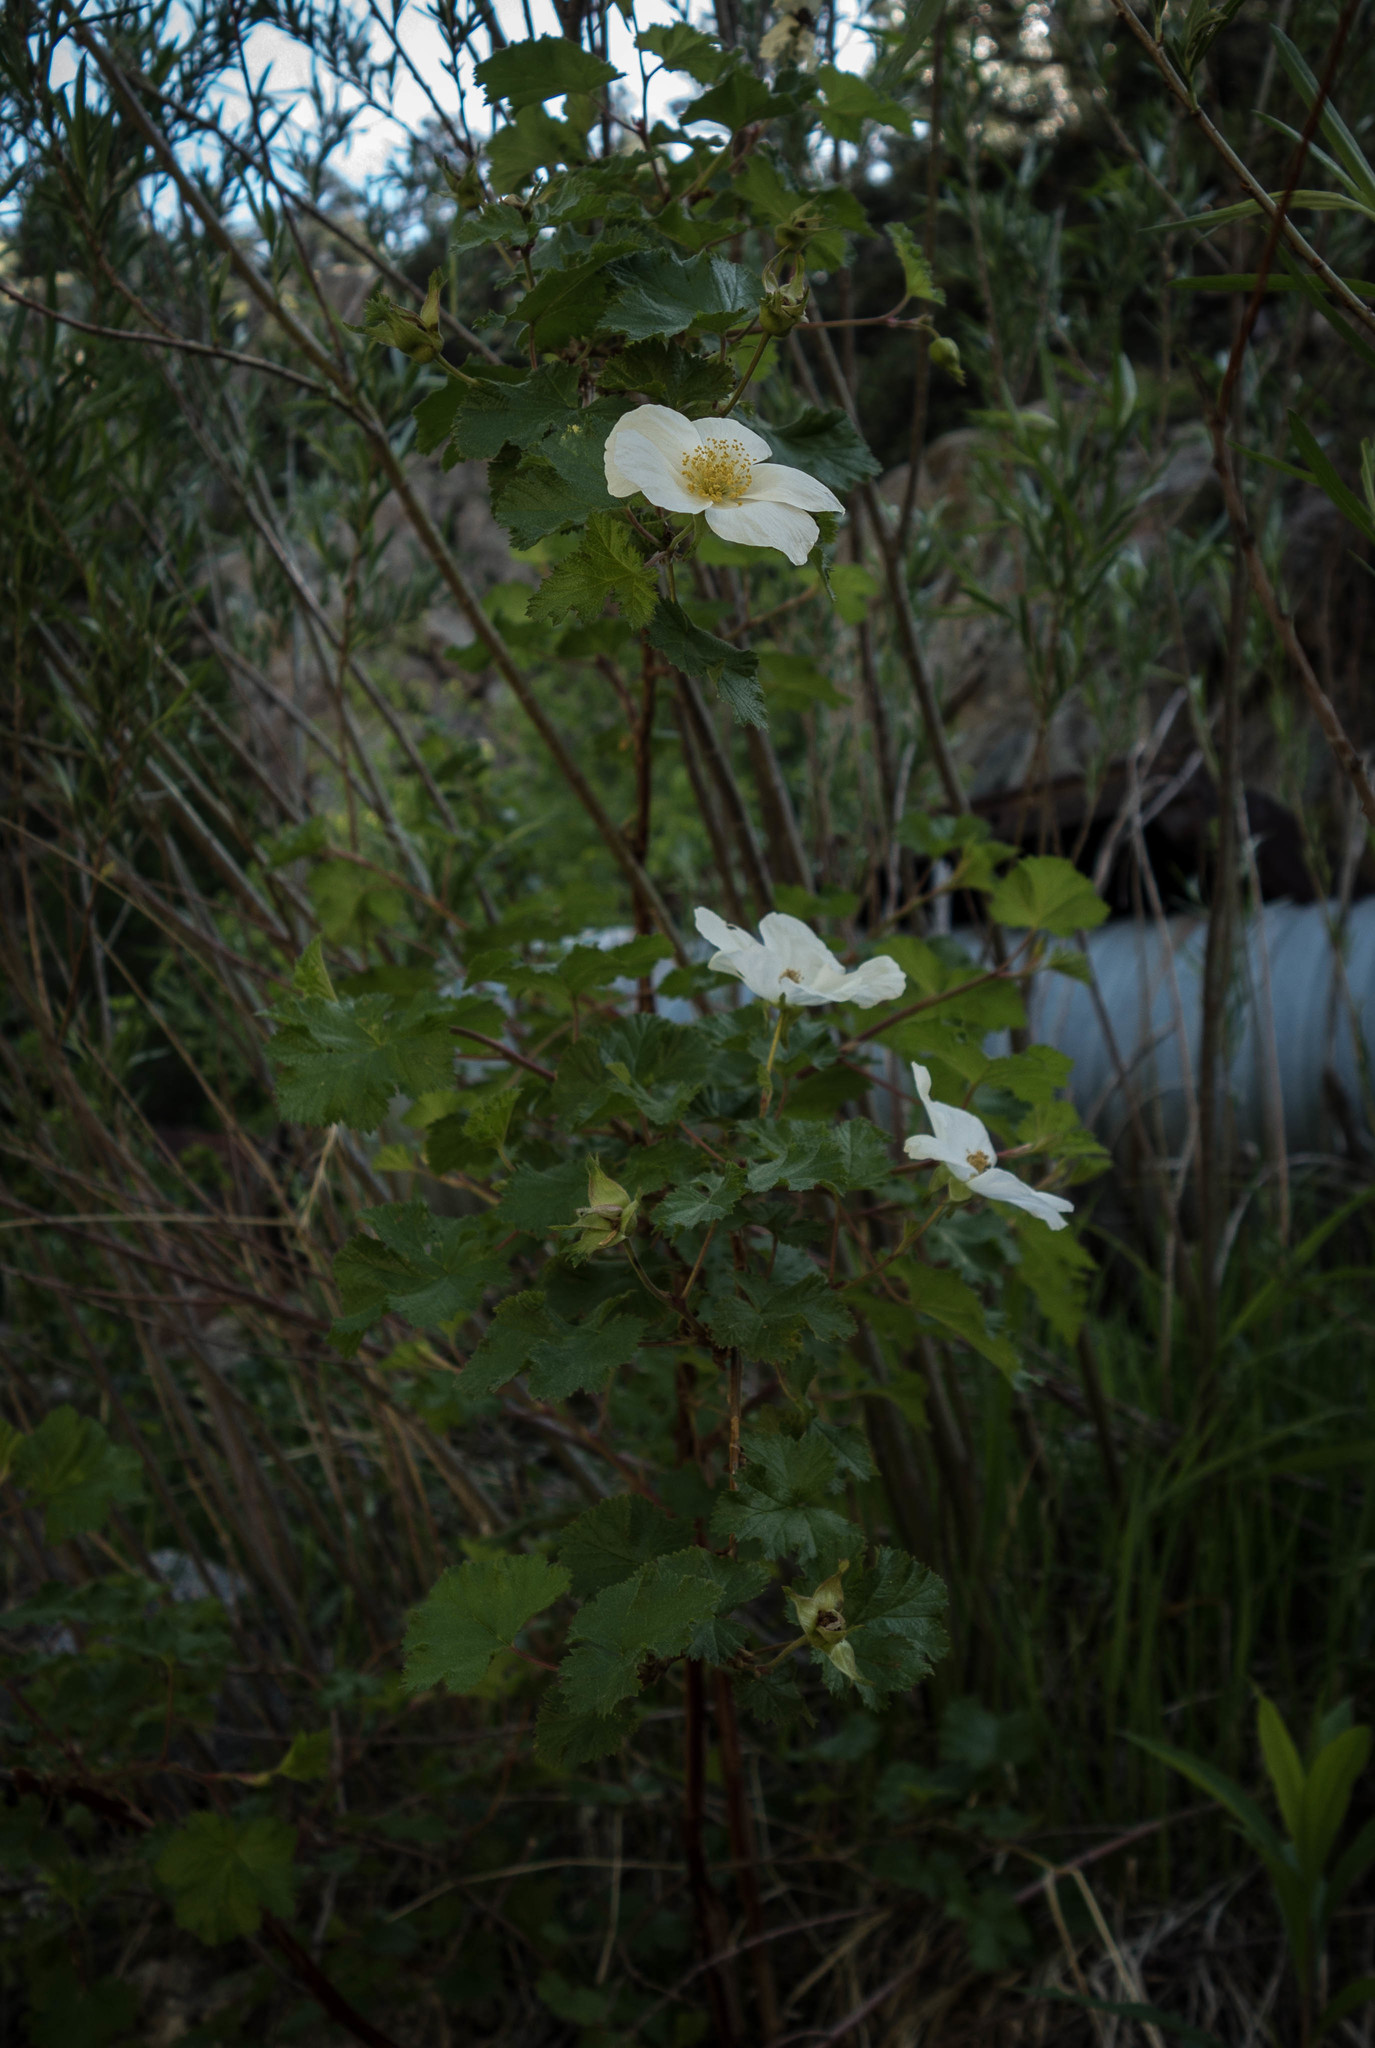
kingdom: Plantae
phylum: Tracheophyta
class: Magnoliopsida
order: Rosales
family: Rosaceae
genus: Rubus
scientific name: Rubus deliciosus
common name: Rocky mountain raspberry
